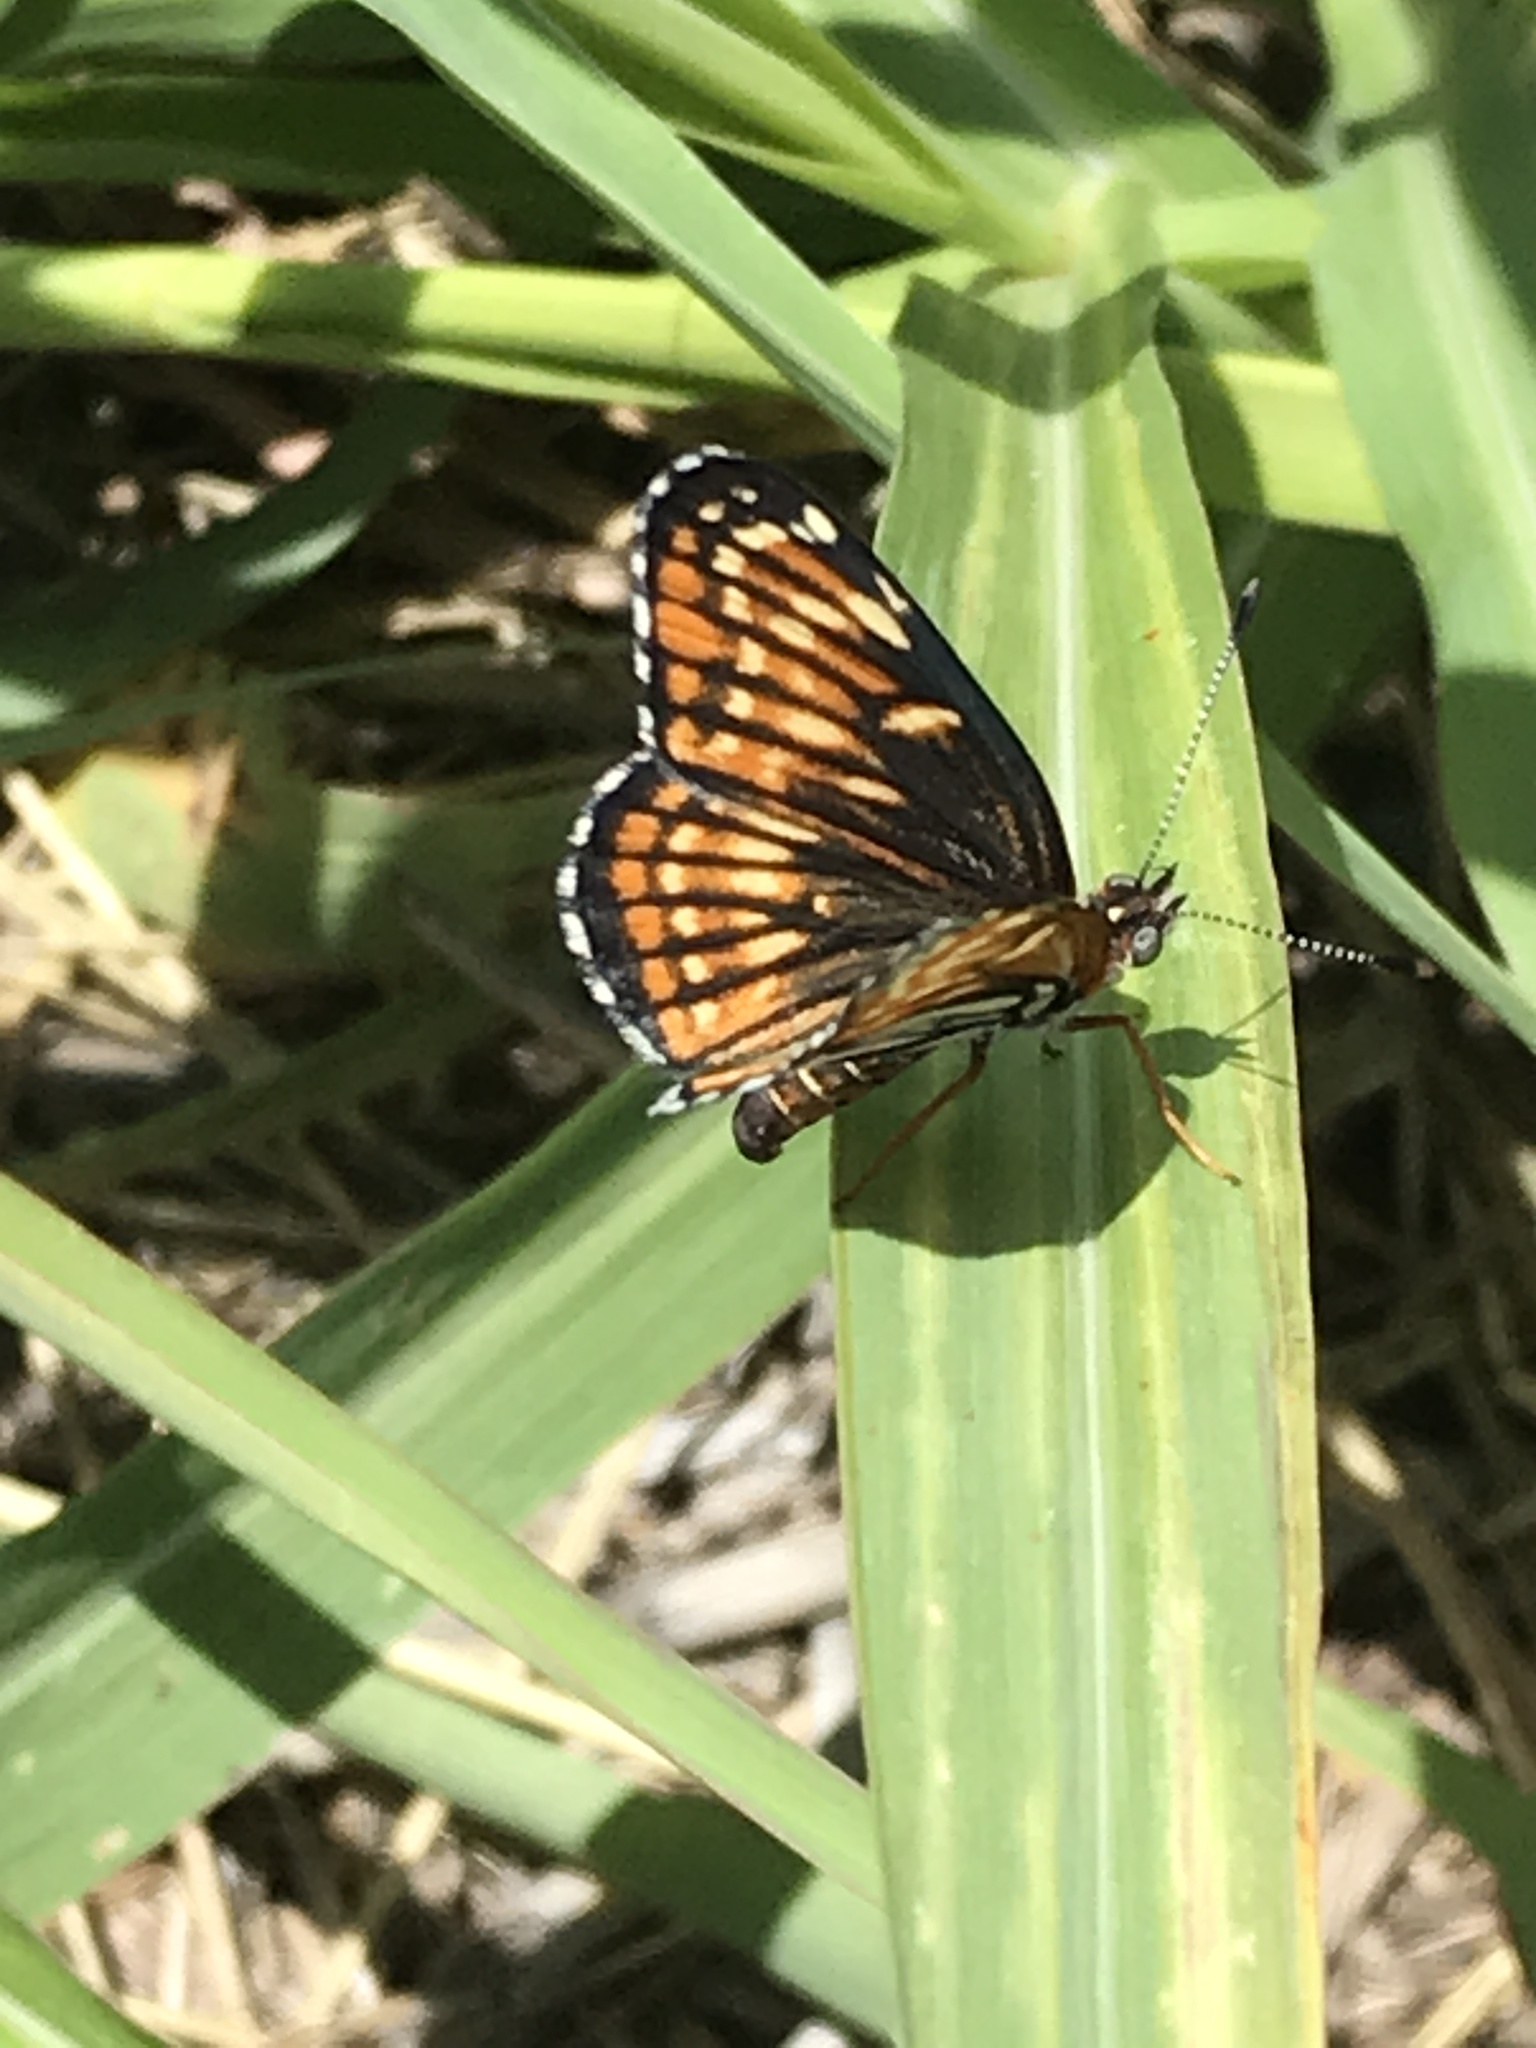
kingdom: Animalia
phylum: Arthropoda
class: Insecta
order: Lepidoptera
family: Nymphalidae
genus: Thessalia
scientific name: Thessalia leanira
